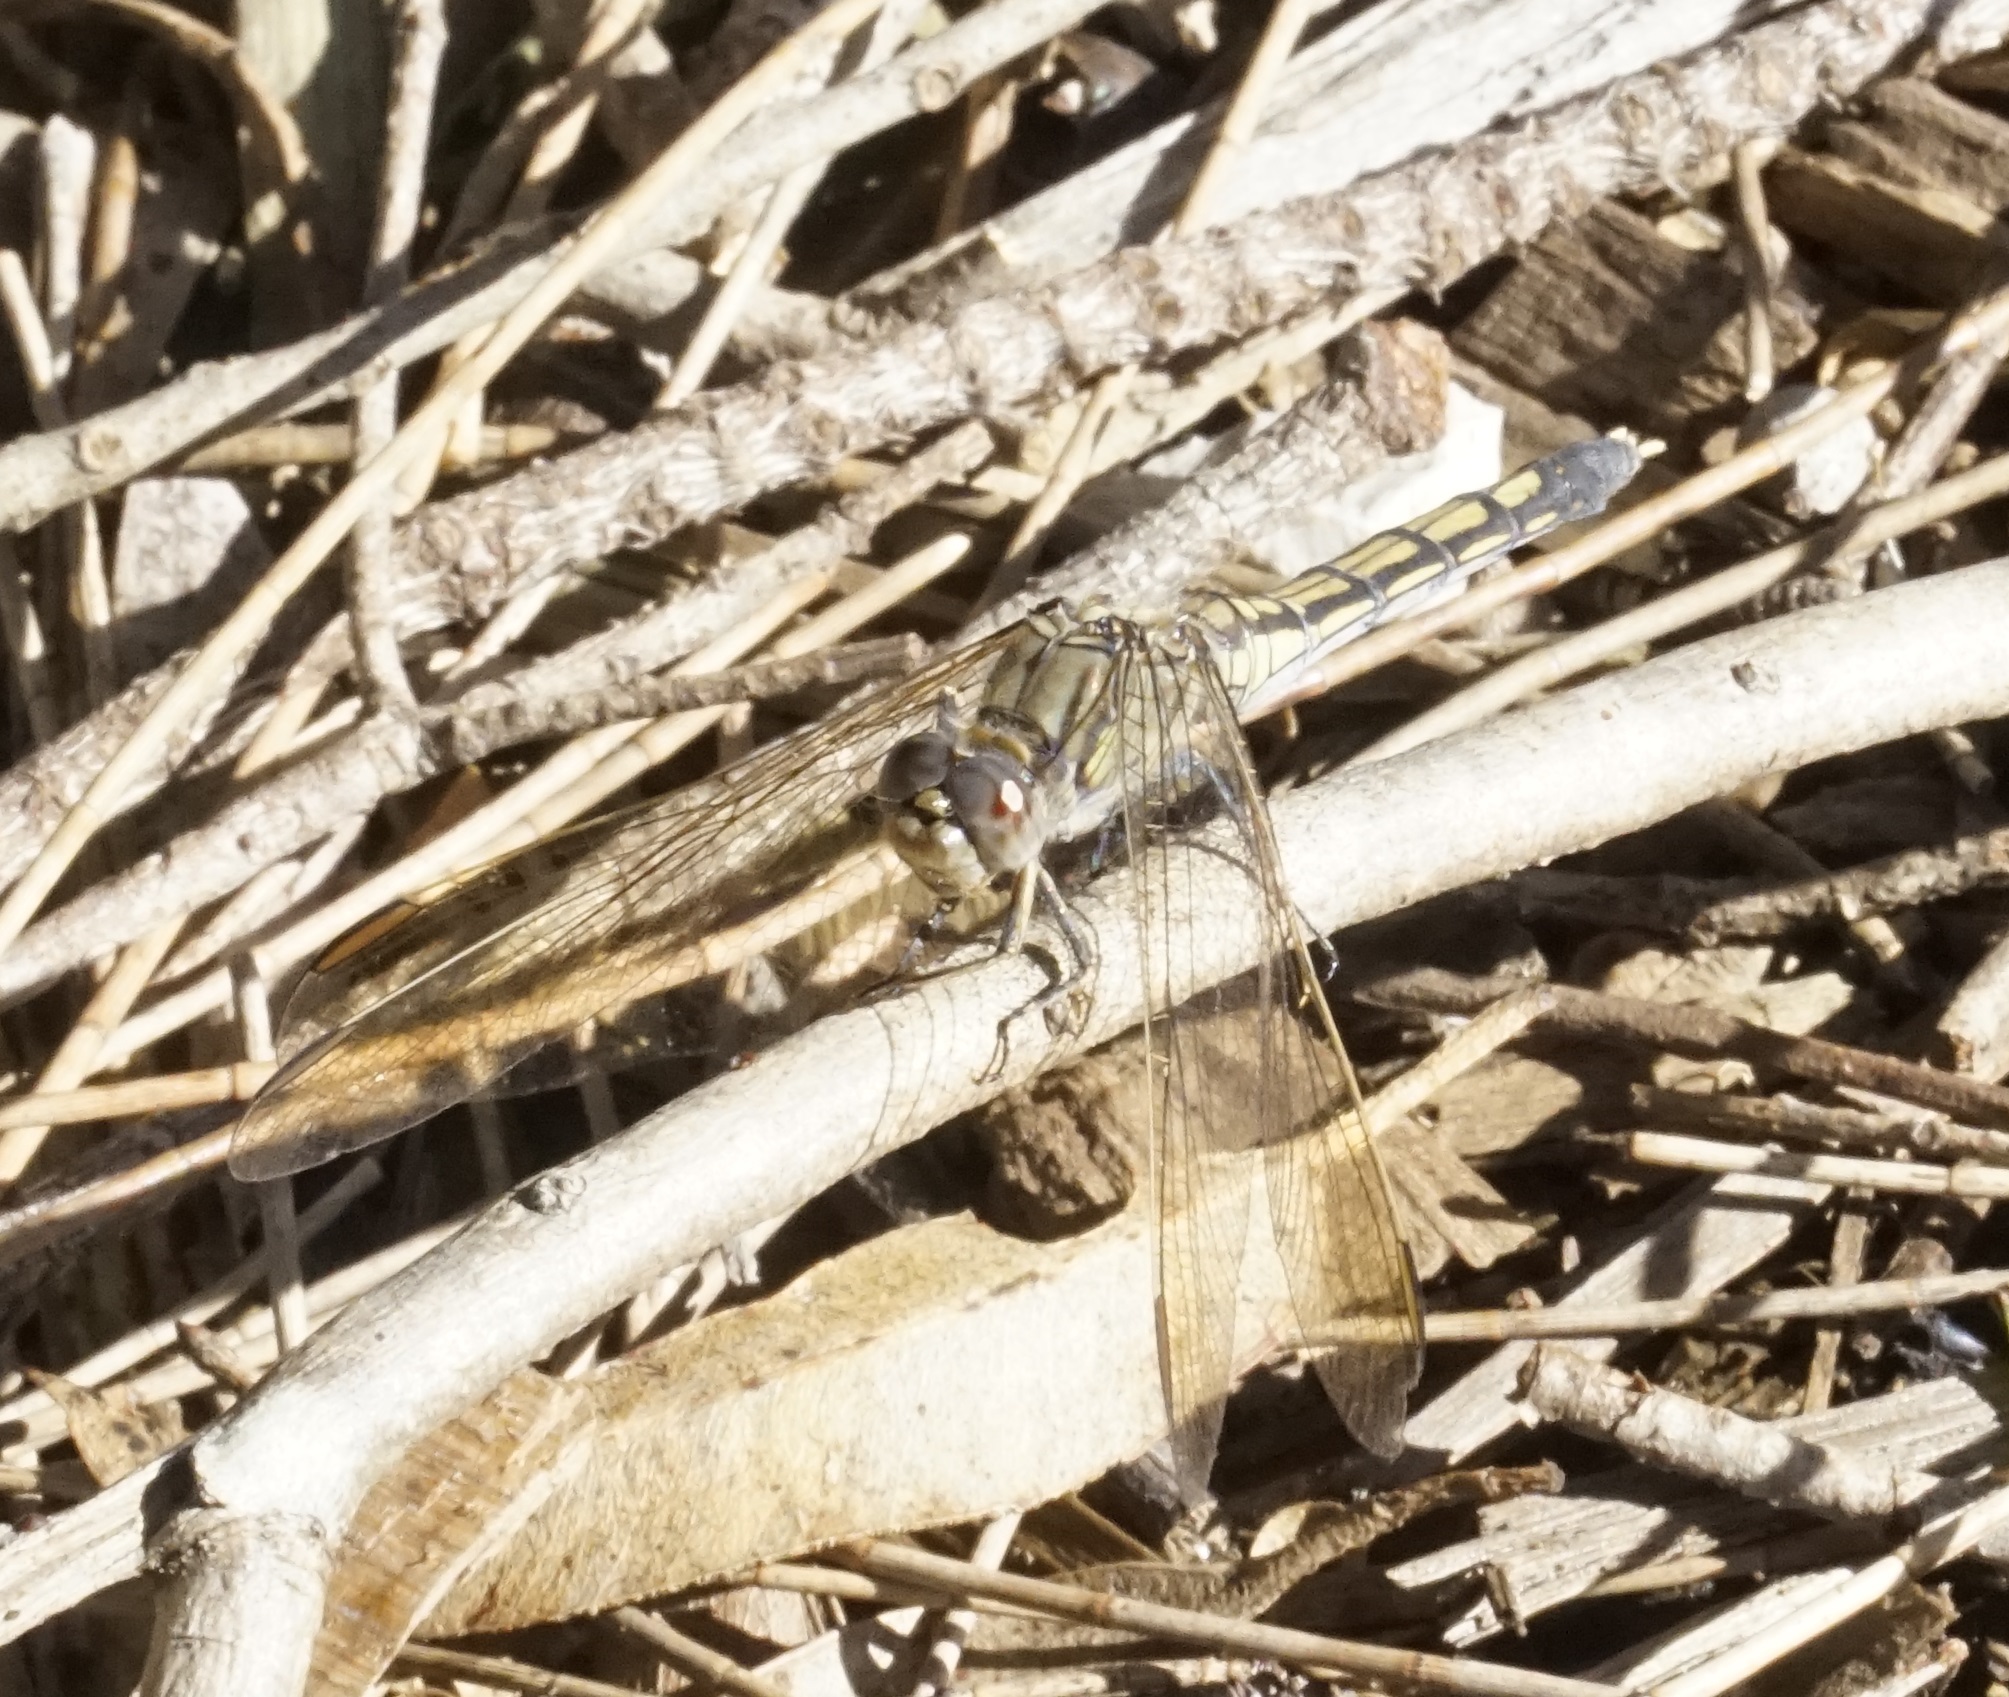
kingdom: Animalia
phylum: Arthropoda
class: Insecta
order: Odonata
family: Libellulidae
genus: Orthetrum
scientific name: Orthetrum caledonicum
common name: Blue skimmer
